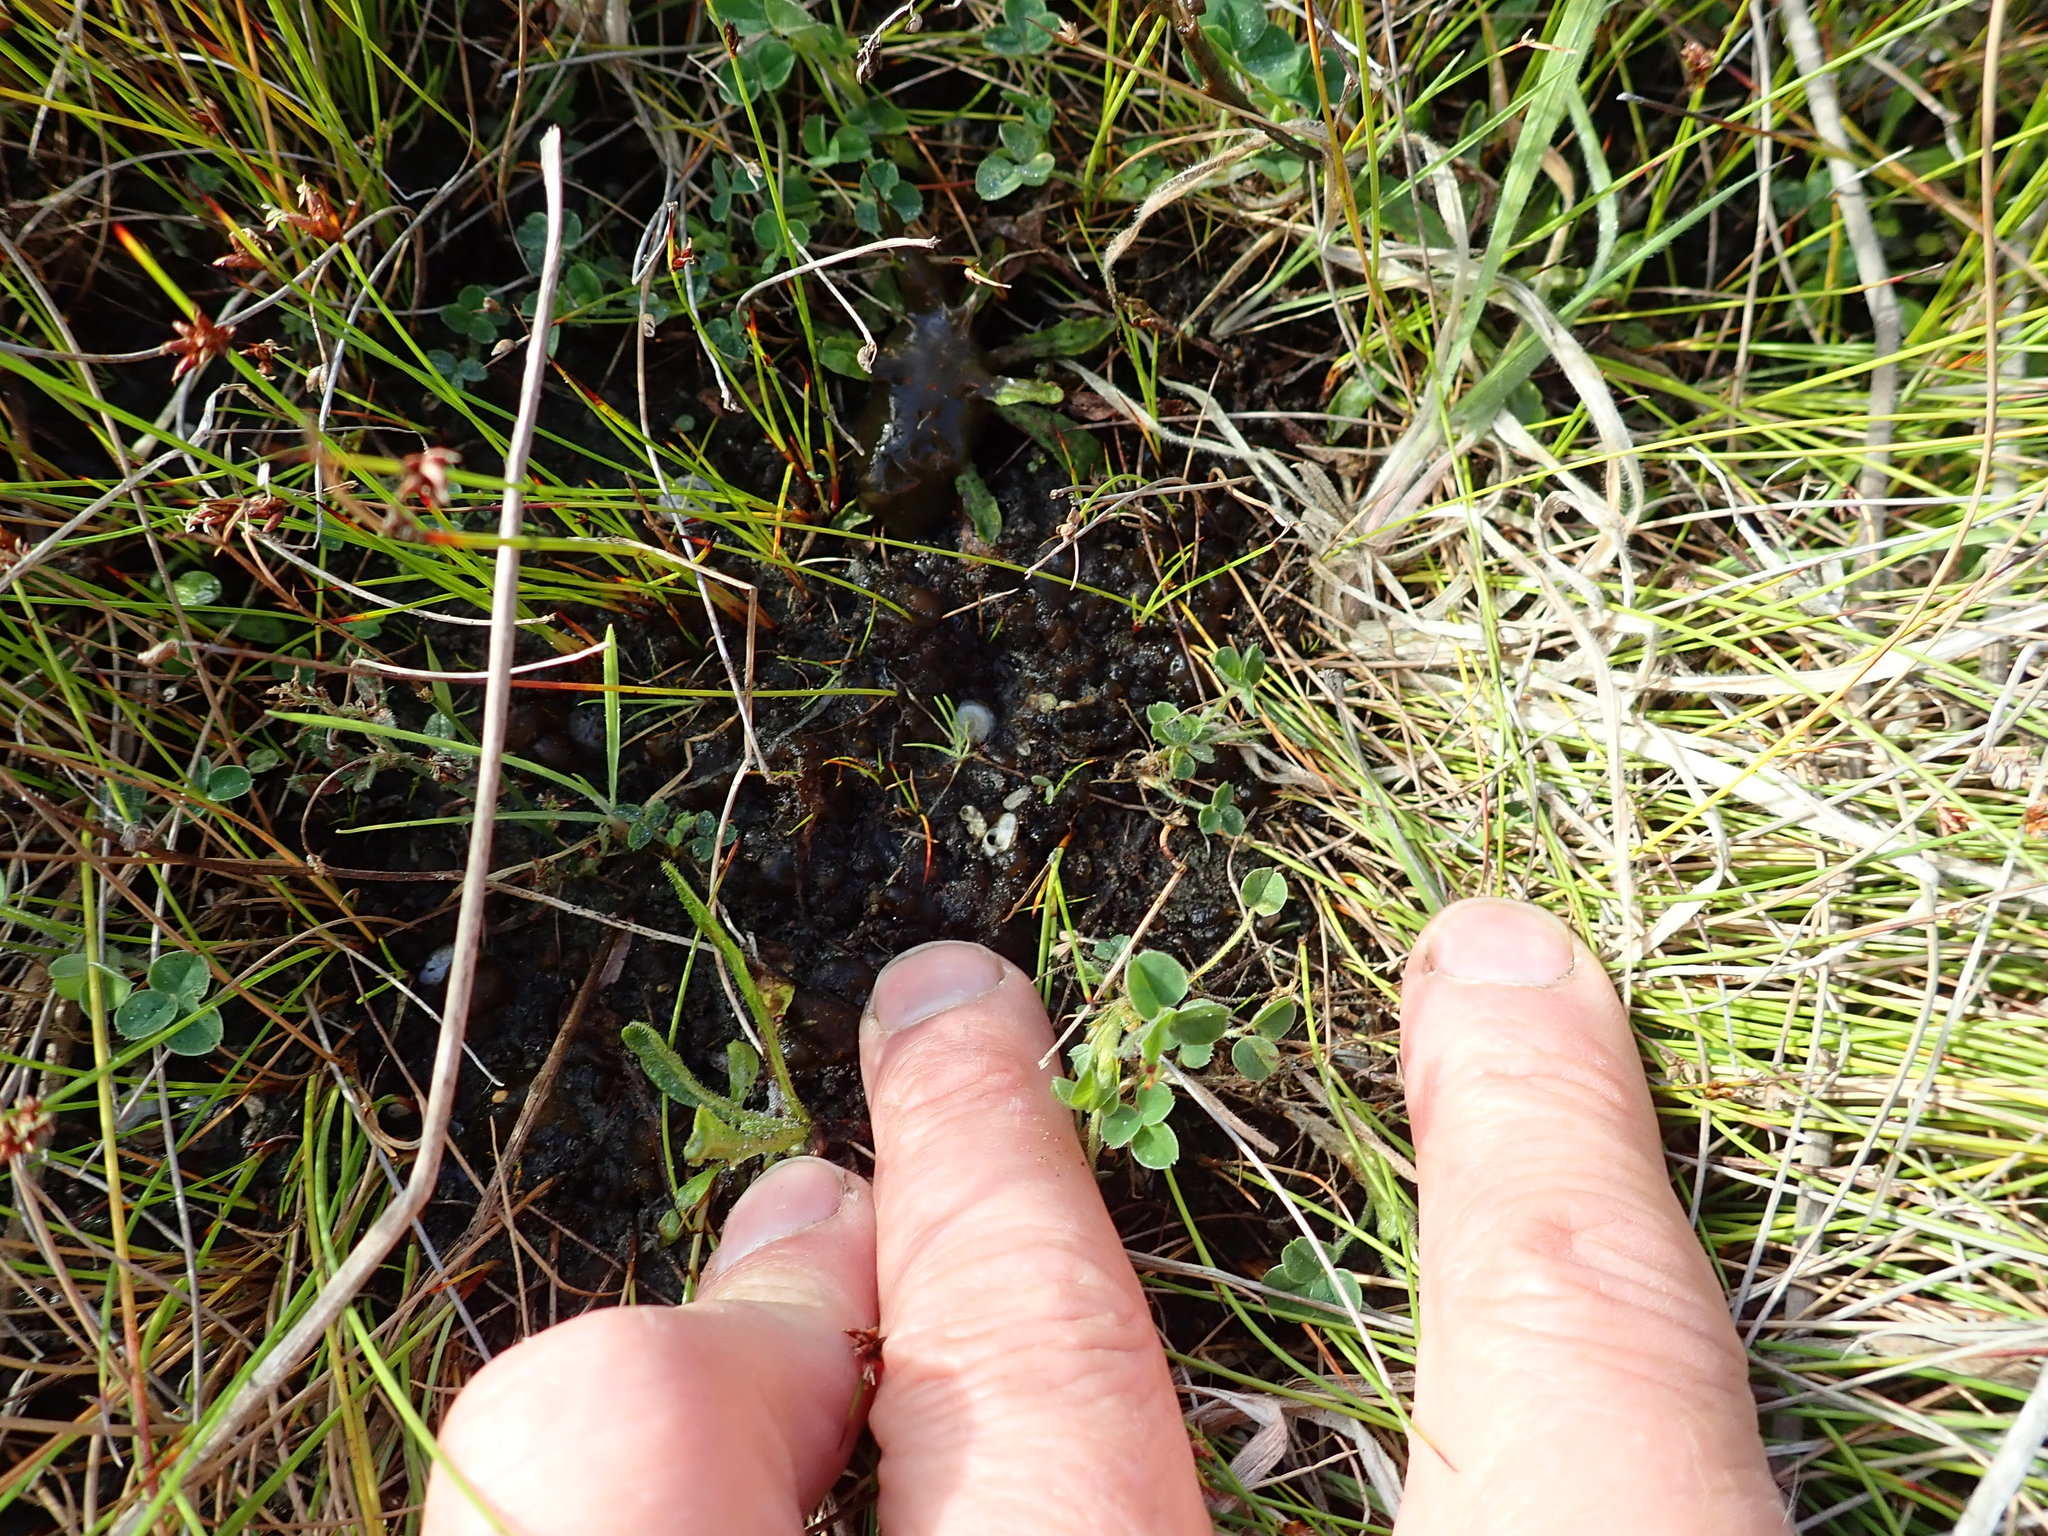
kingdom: Bacteria
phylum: Cyanobacteria
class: Cyanobacteriia
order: Cyanobacteriales
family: Nostocaceae
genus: Nostoc
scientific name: Nostoc commune
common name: Star jelly
